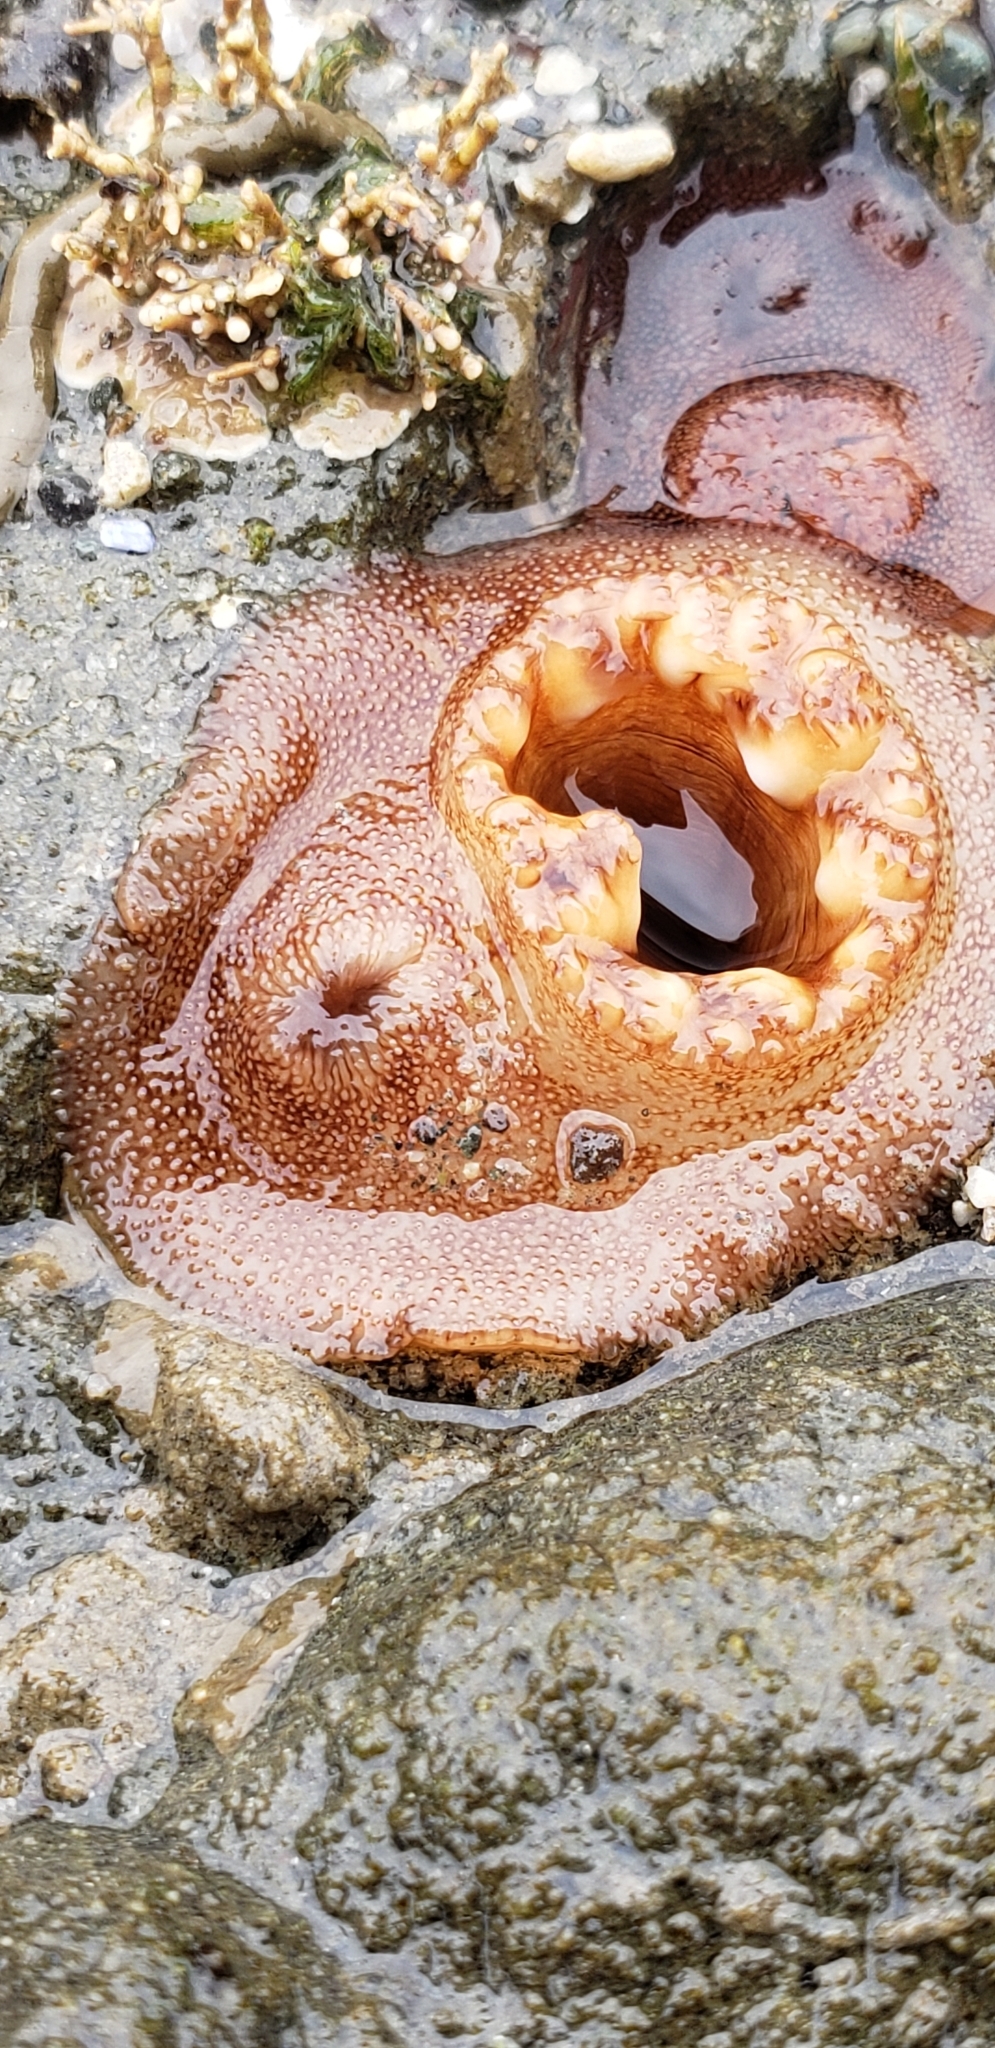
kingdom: Animalia
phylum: Mollusca
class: Bivalvia
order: Myida
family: Pholadidae
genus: Parapholas
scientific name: Parapholas californica
